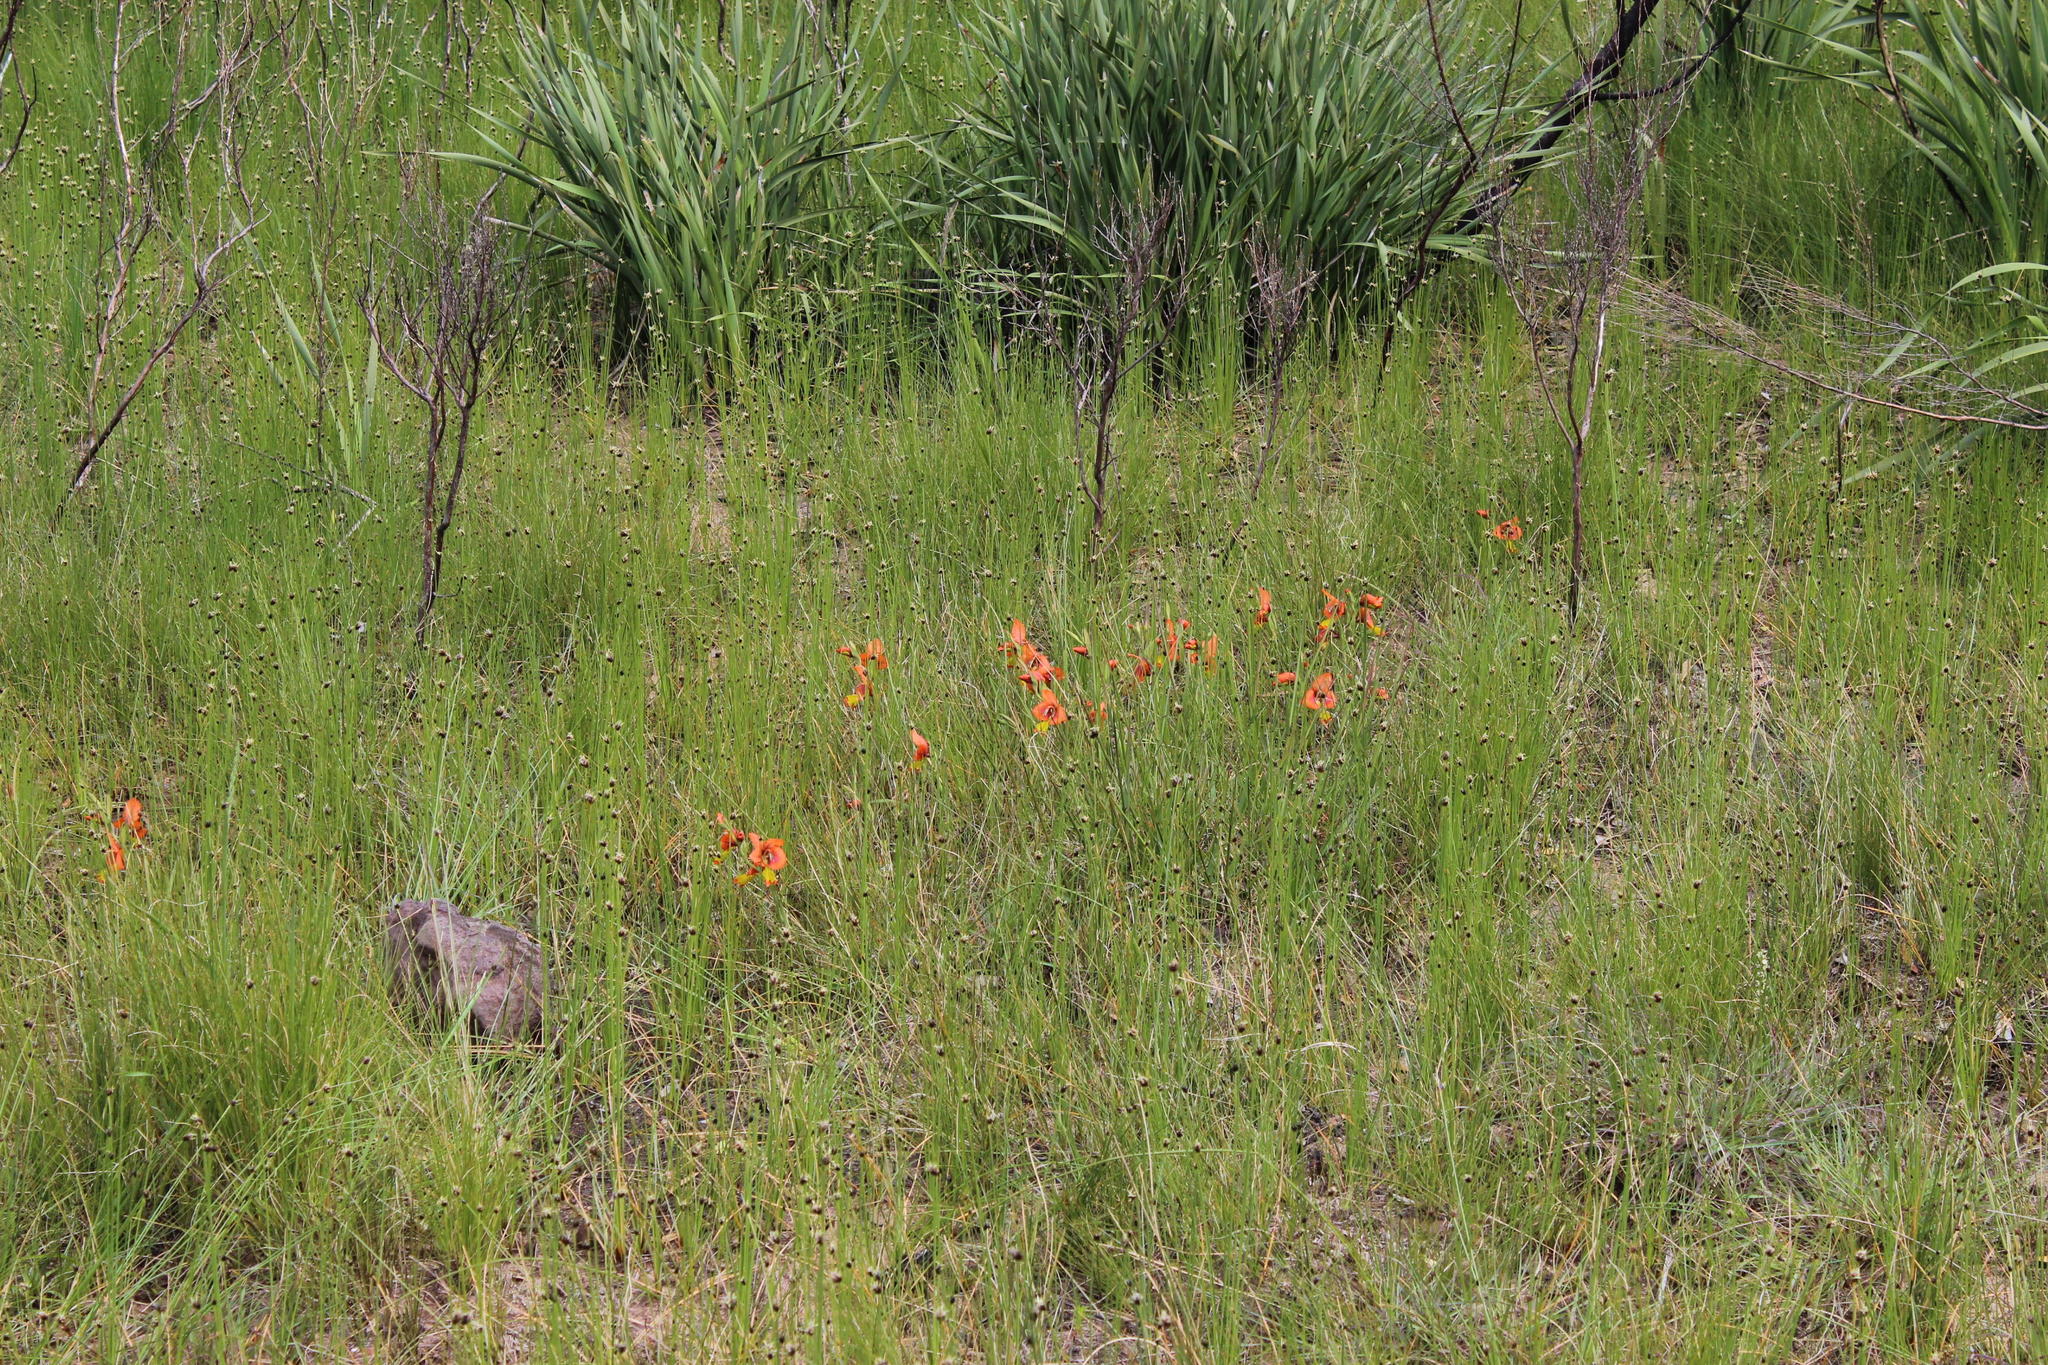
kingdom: Plantae
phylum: Tracheophyta
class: Liliopsida
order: Asparagales
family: Iridaceae
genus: Gladiolus
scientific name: Gladiolus alatus
